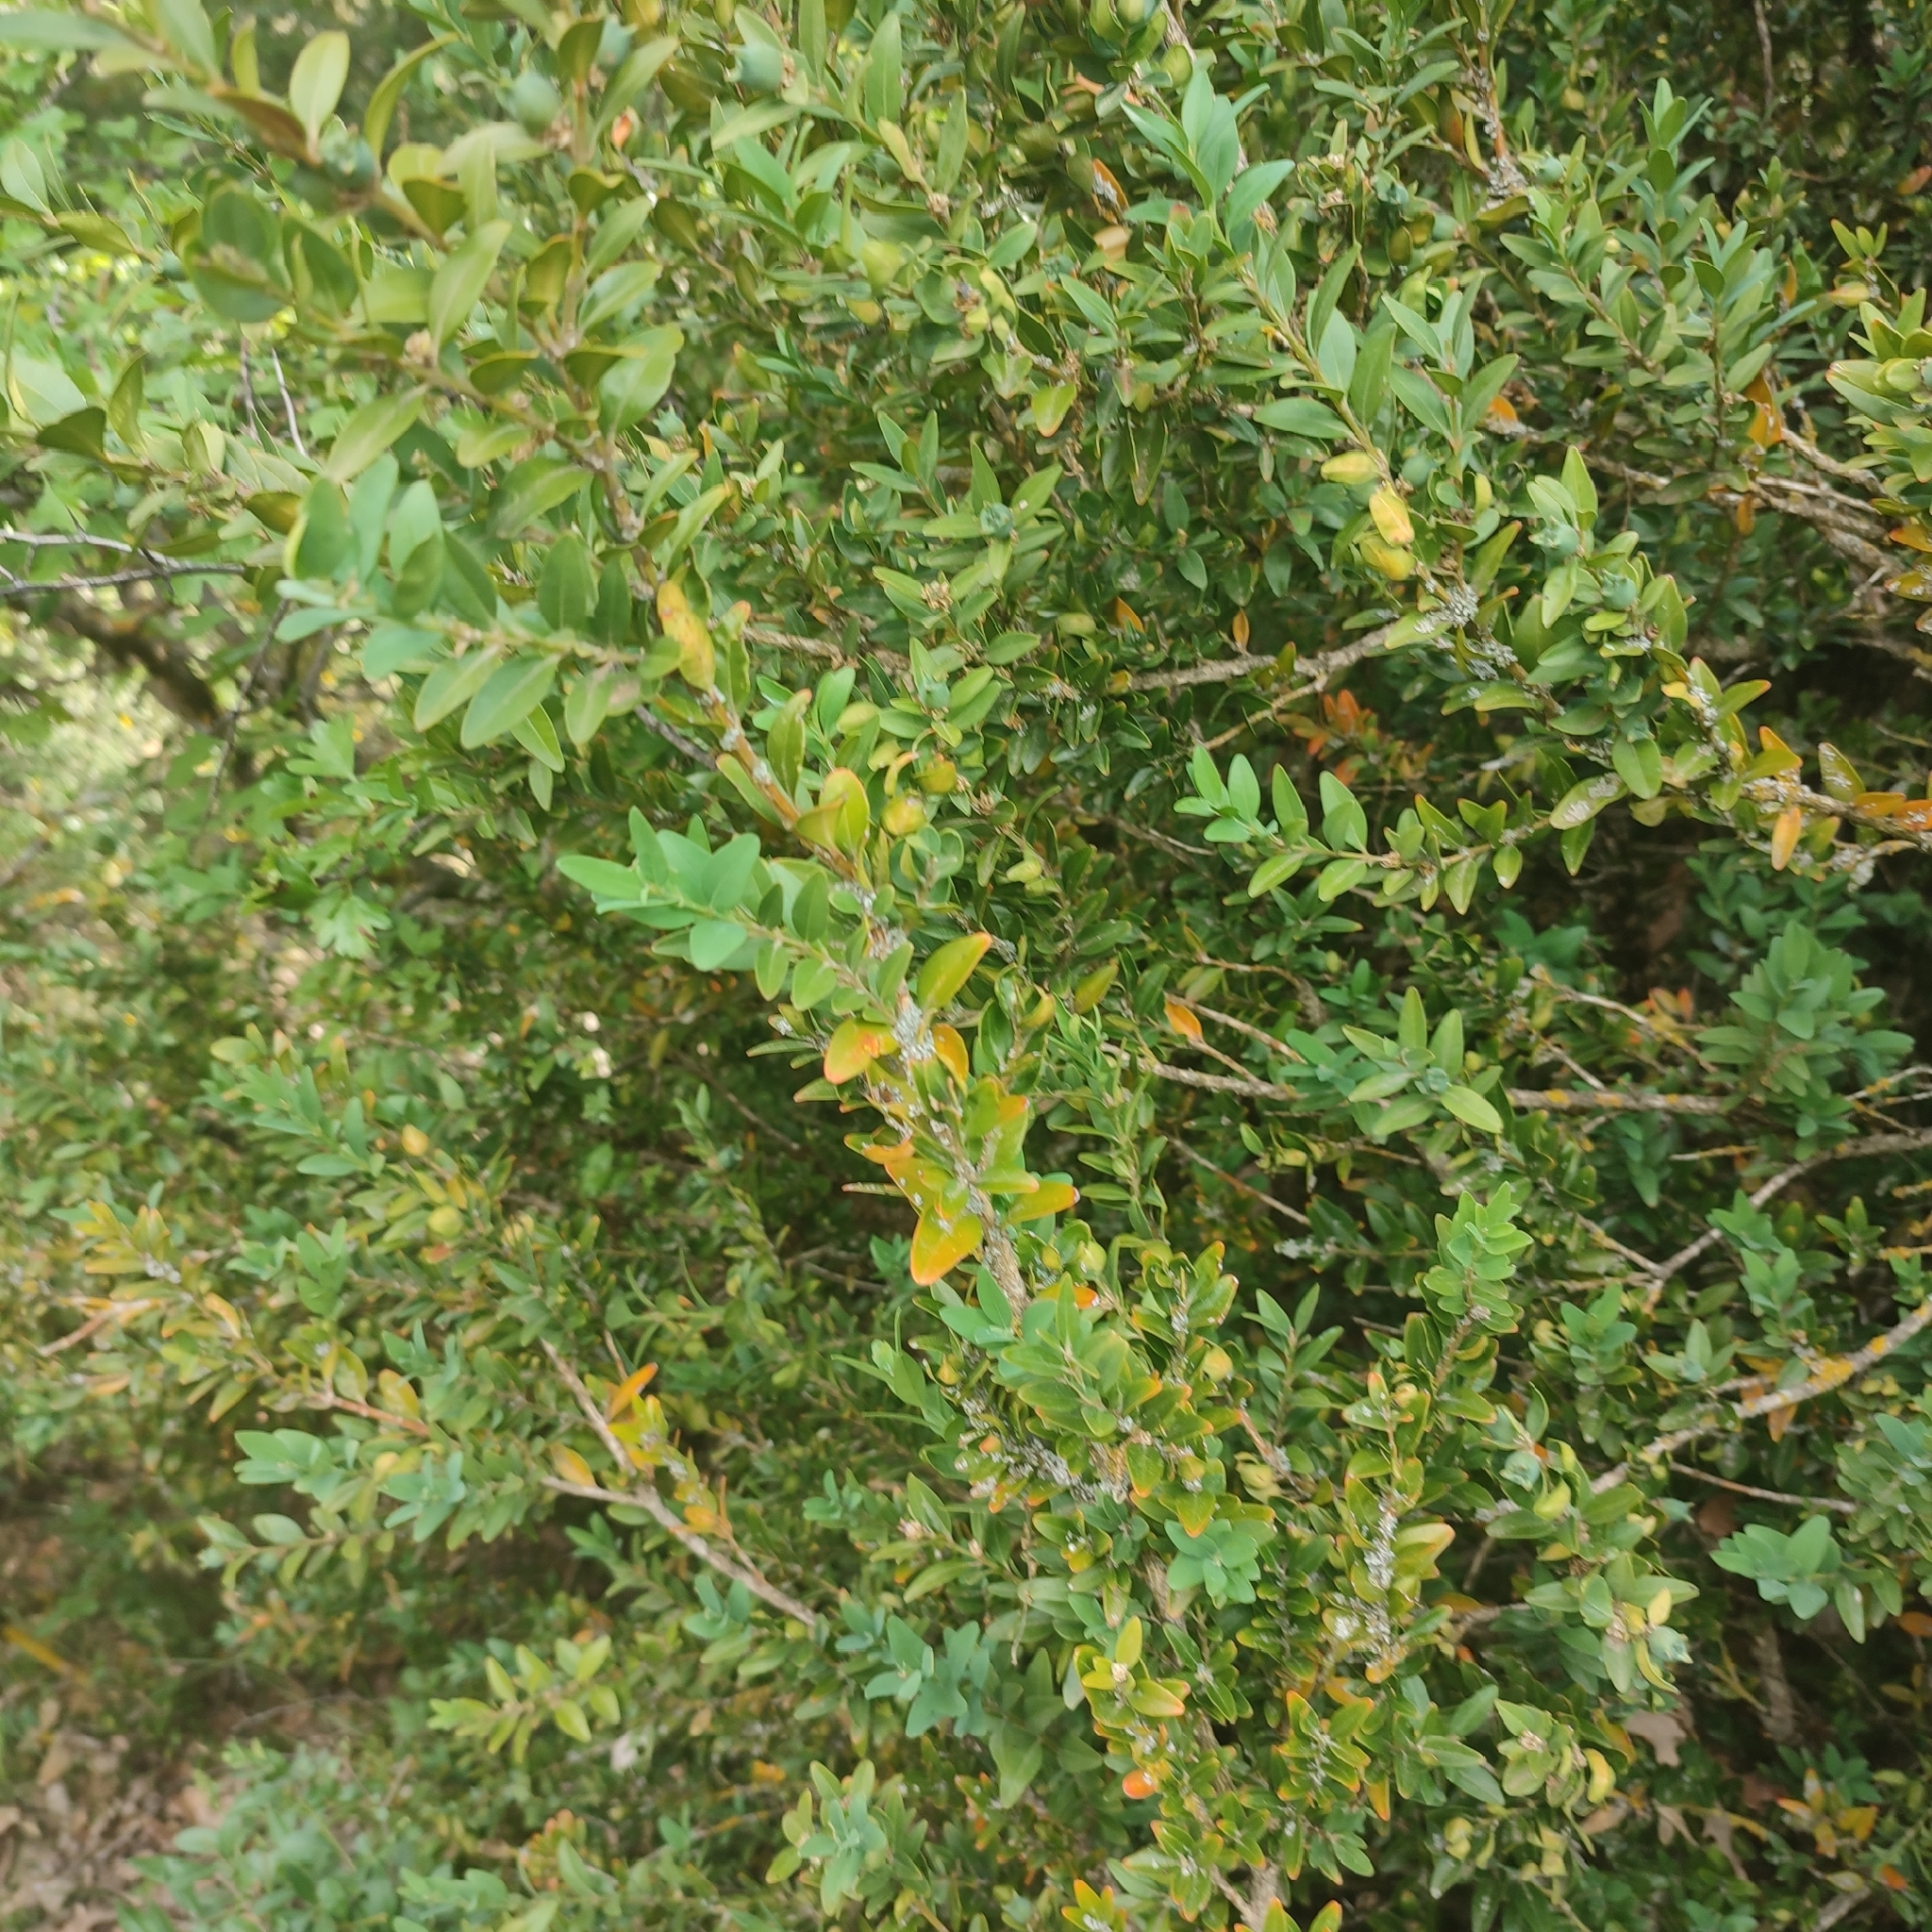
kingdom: Plantae
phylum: Tracheophyta
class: Magnoliopsida
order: Buxales
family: Buxaceae
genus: Buxus
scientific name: Buxus sempervirens
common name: Box
